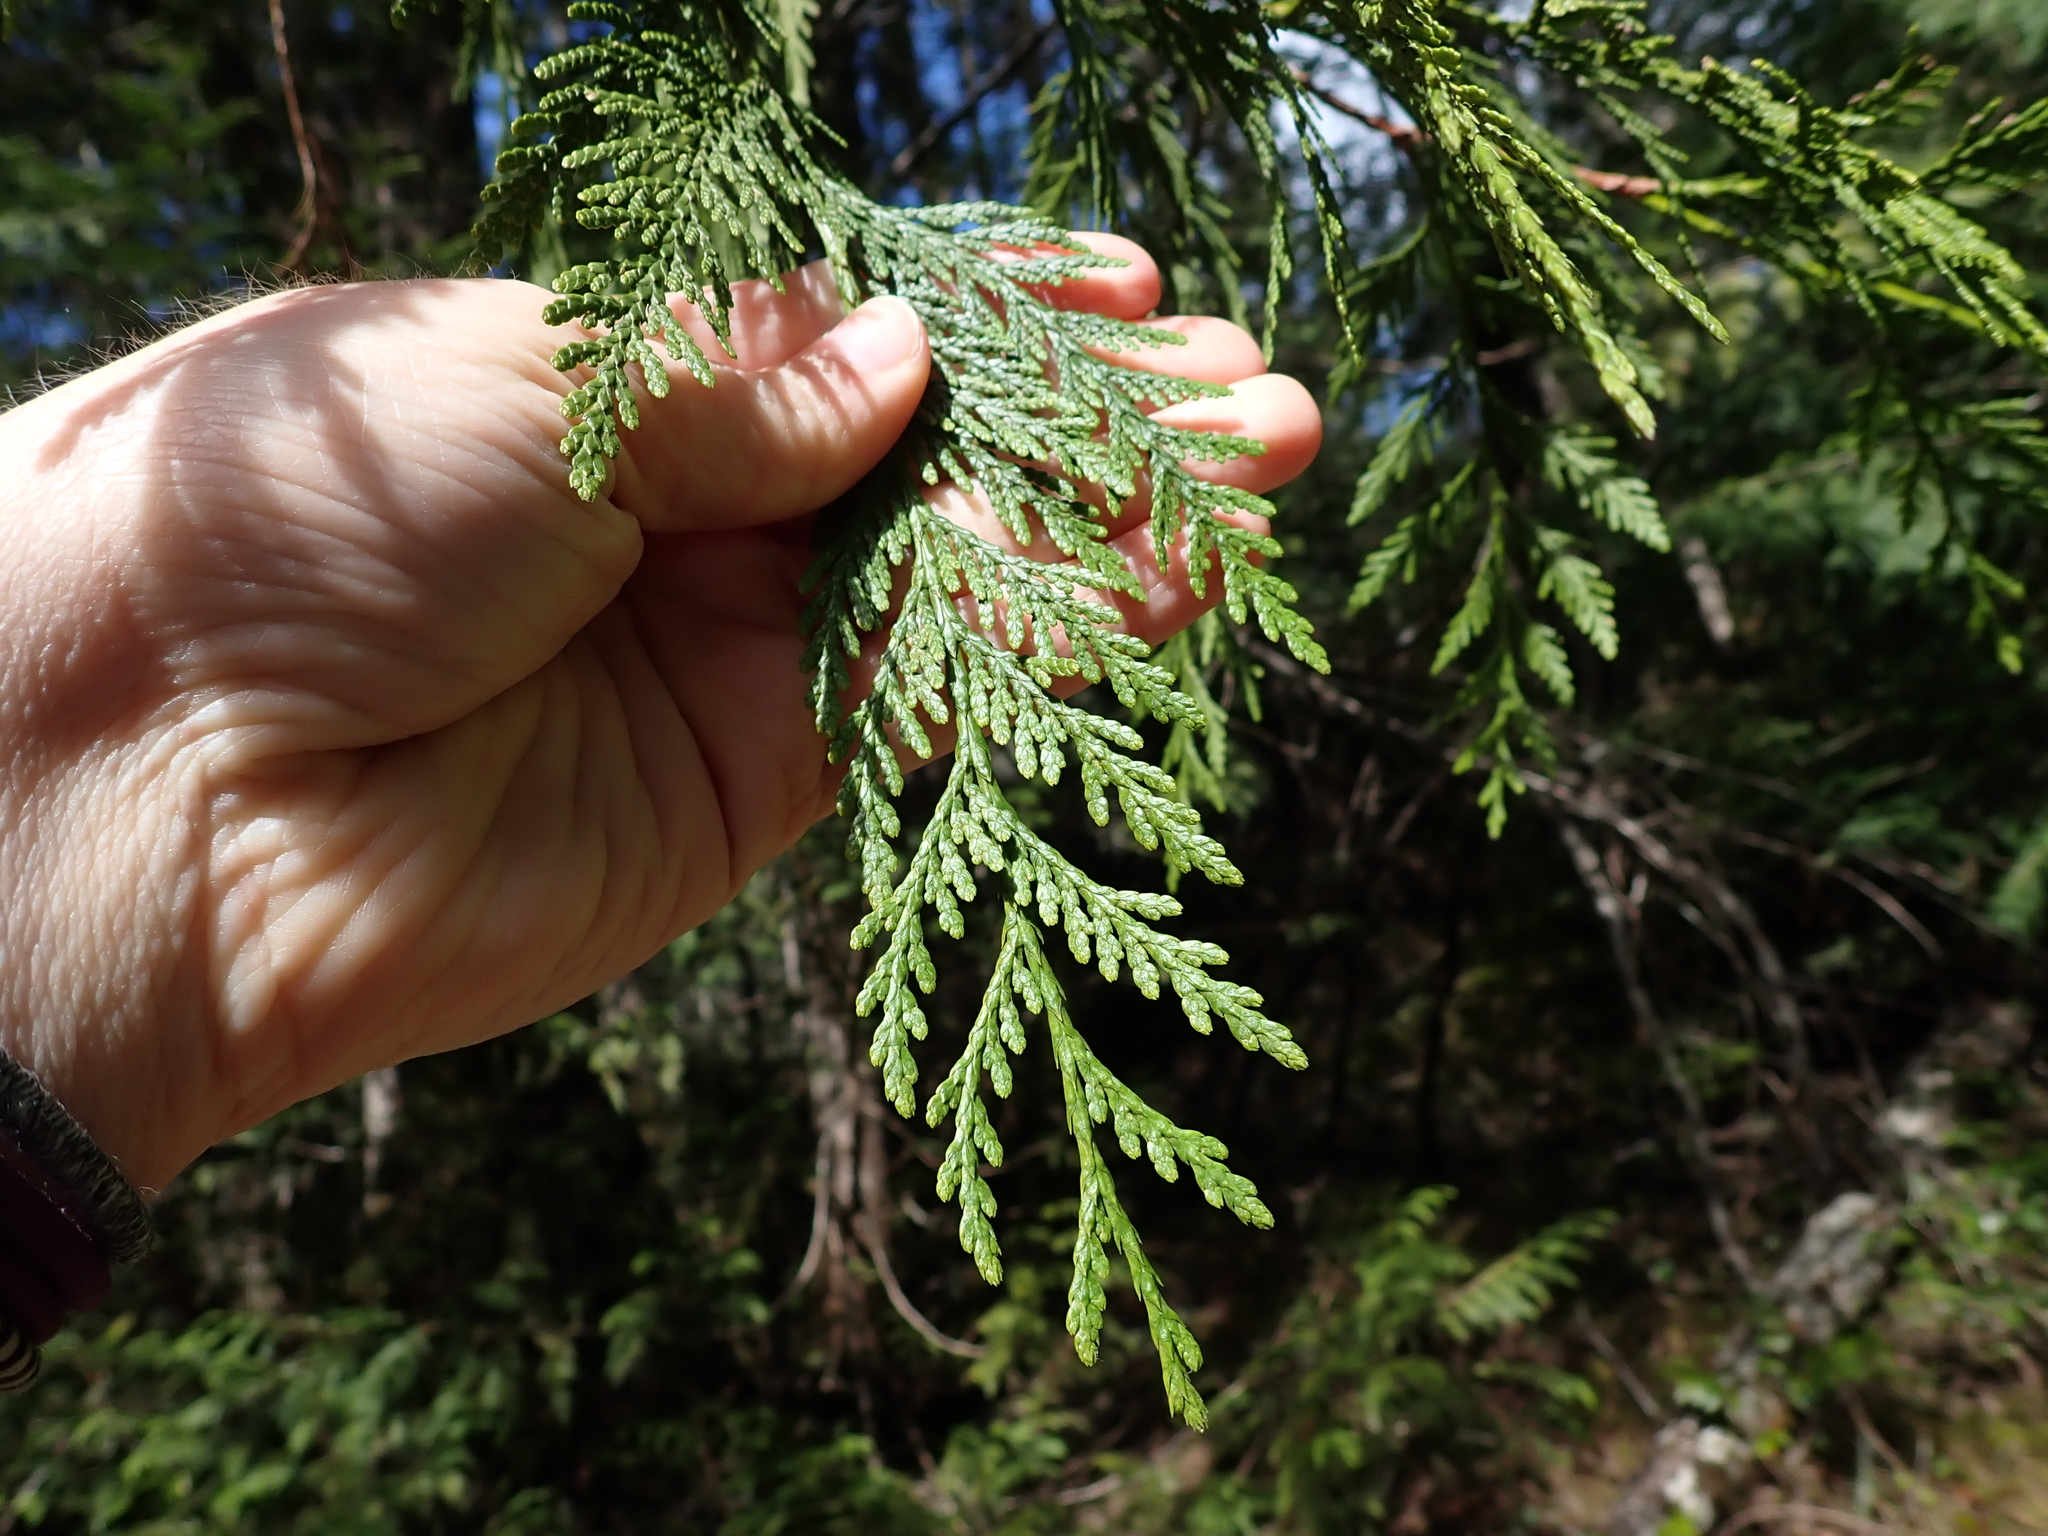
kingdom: Plantae
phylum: Tracheophyta
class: Pinopsida
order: Pinales
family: Cupressaceae
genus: Thuja
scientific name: Thuja plicata
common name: Western red-cedar
